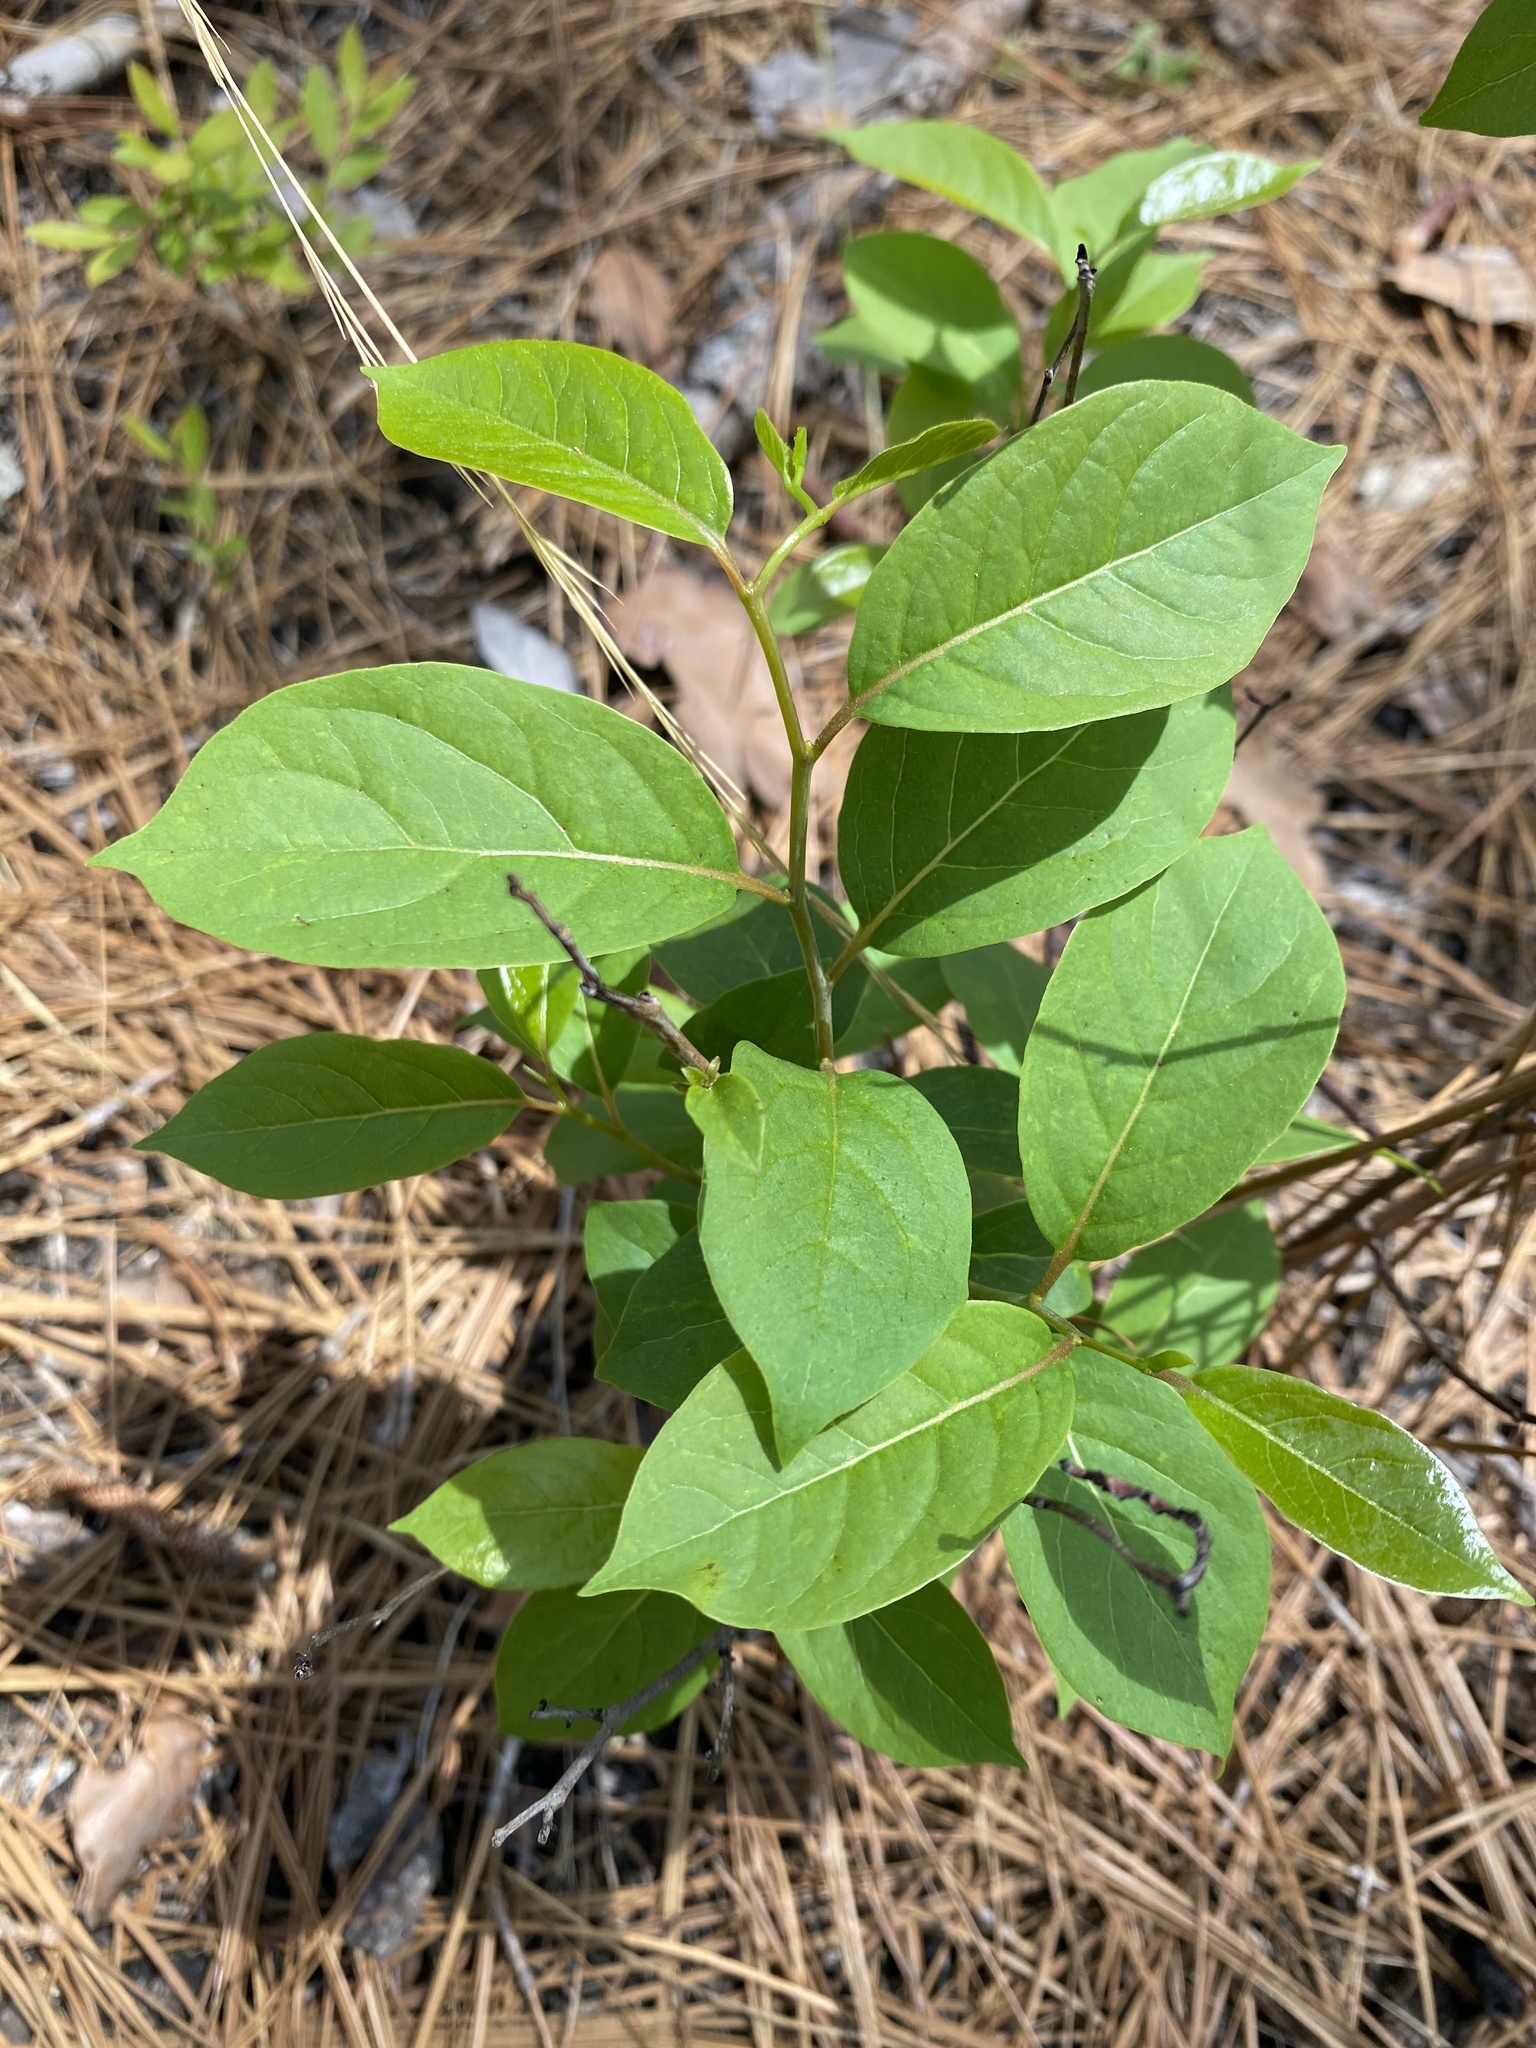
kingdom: Plantae
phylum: Tracheophyta
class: Magnoliopsida
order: Ericales
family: Ebenaceae
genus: Diospyros
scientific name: Diospyros virginiana
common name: Persimmon
